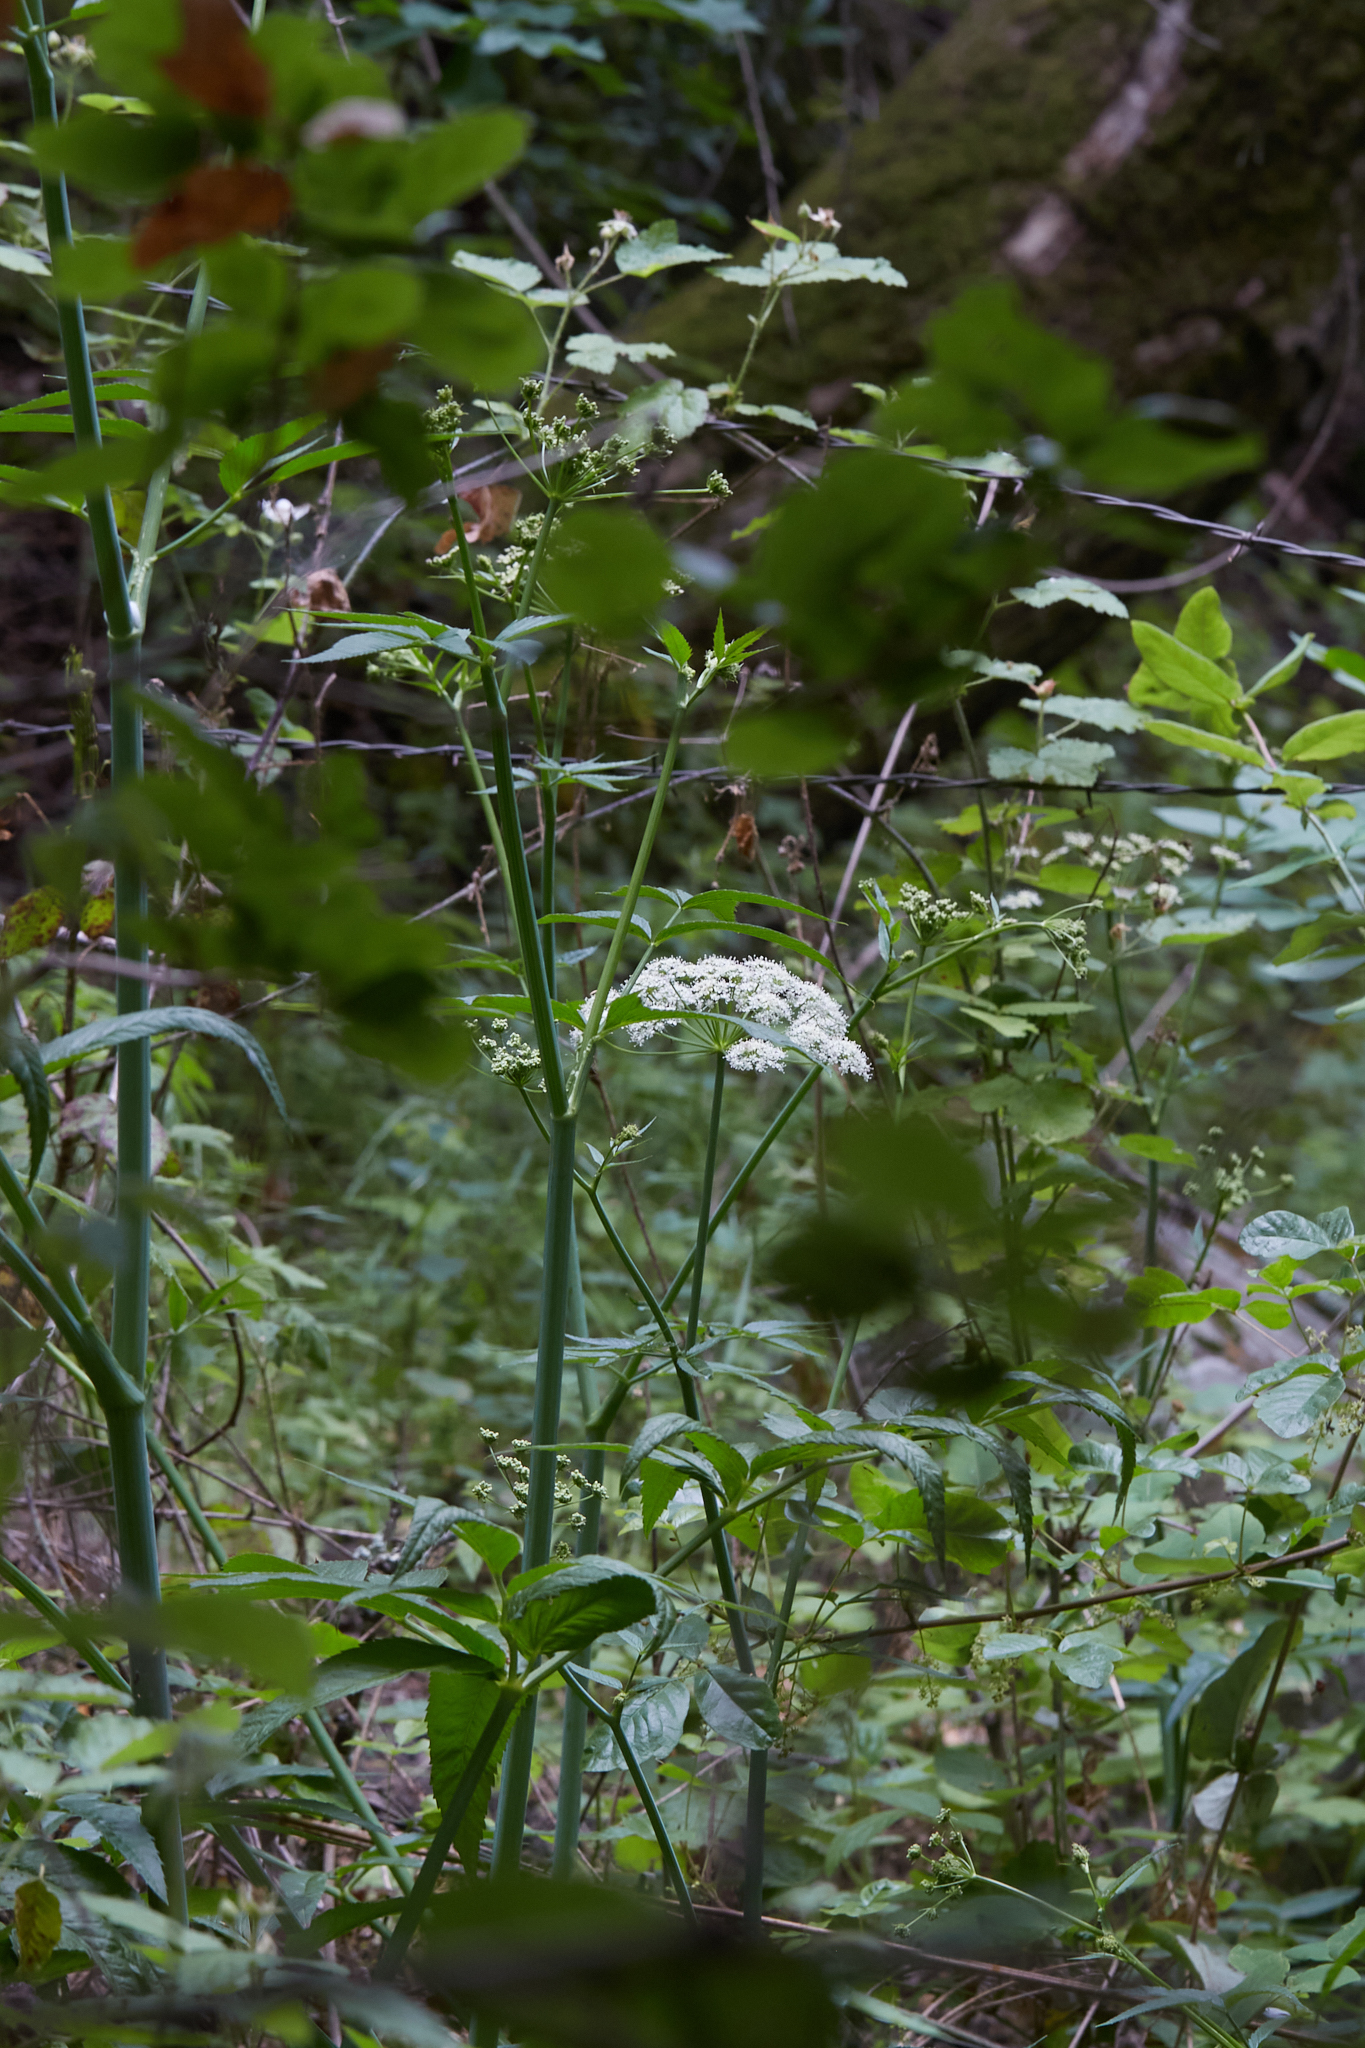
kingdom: Plantae
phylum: Tracheophyta
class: Magnoliopsida
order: Apiales
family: Apiaceae
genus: Cicuta
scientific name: Cicuta douglasii
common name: Western water-hemlock
